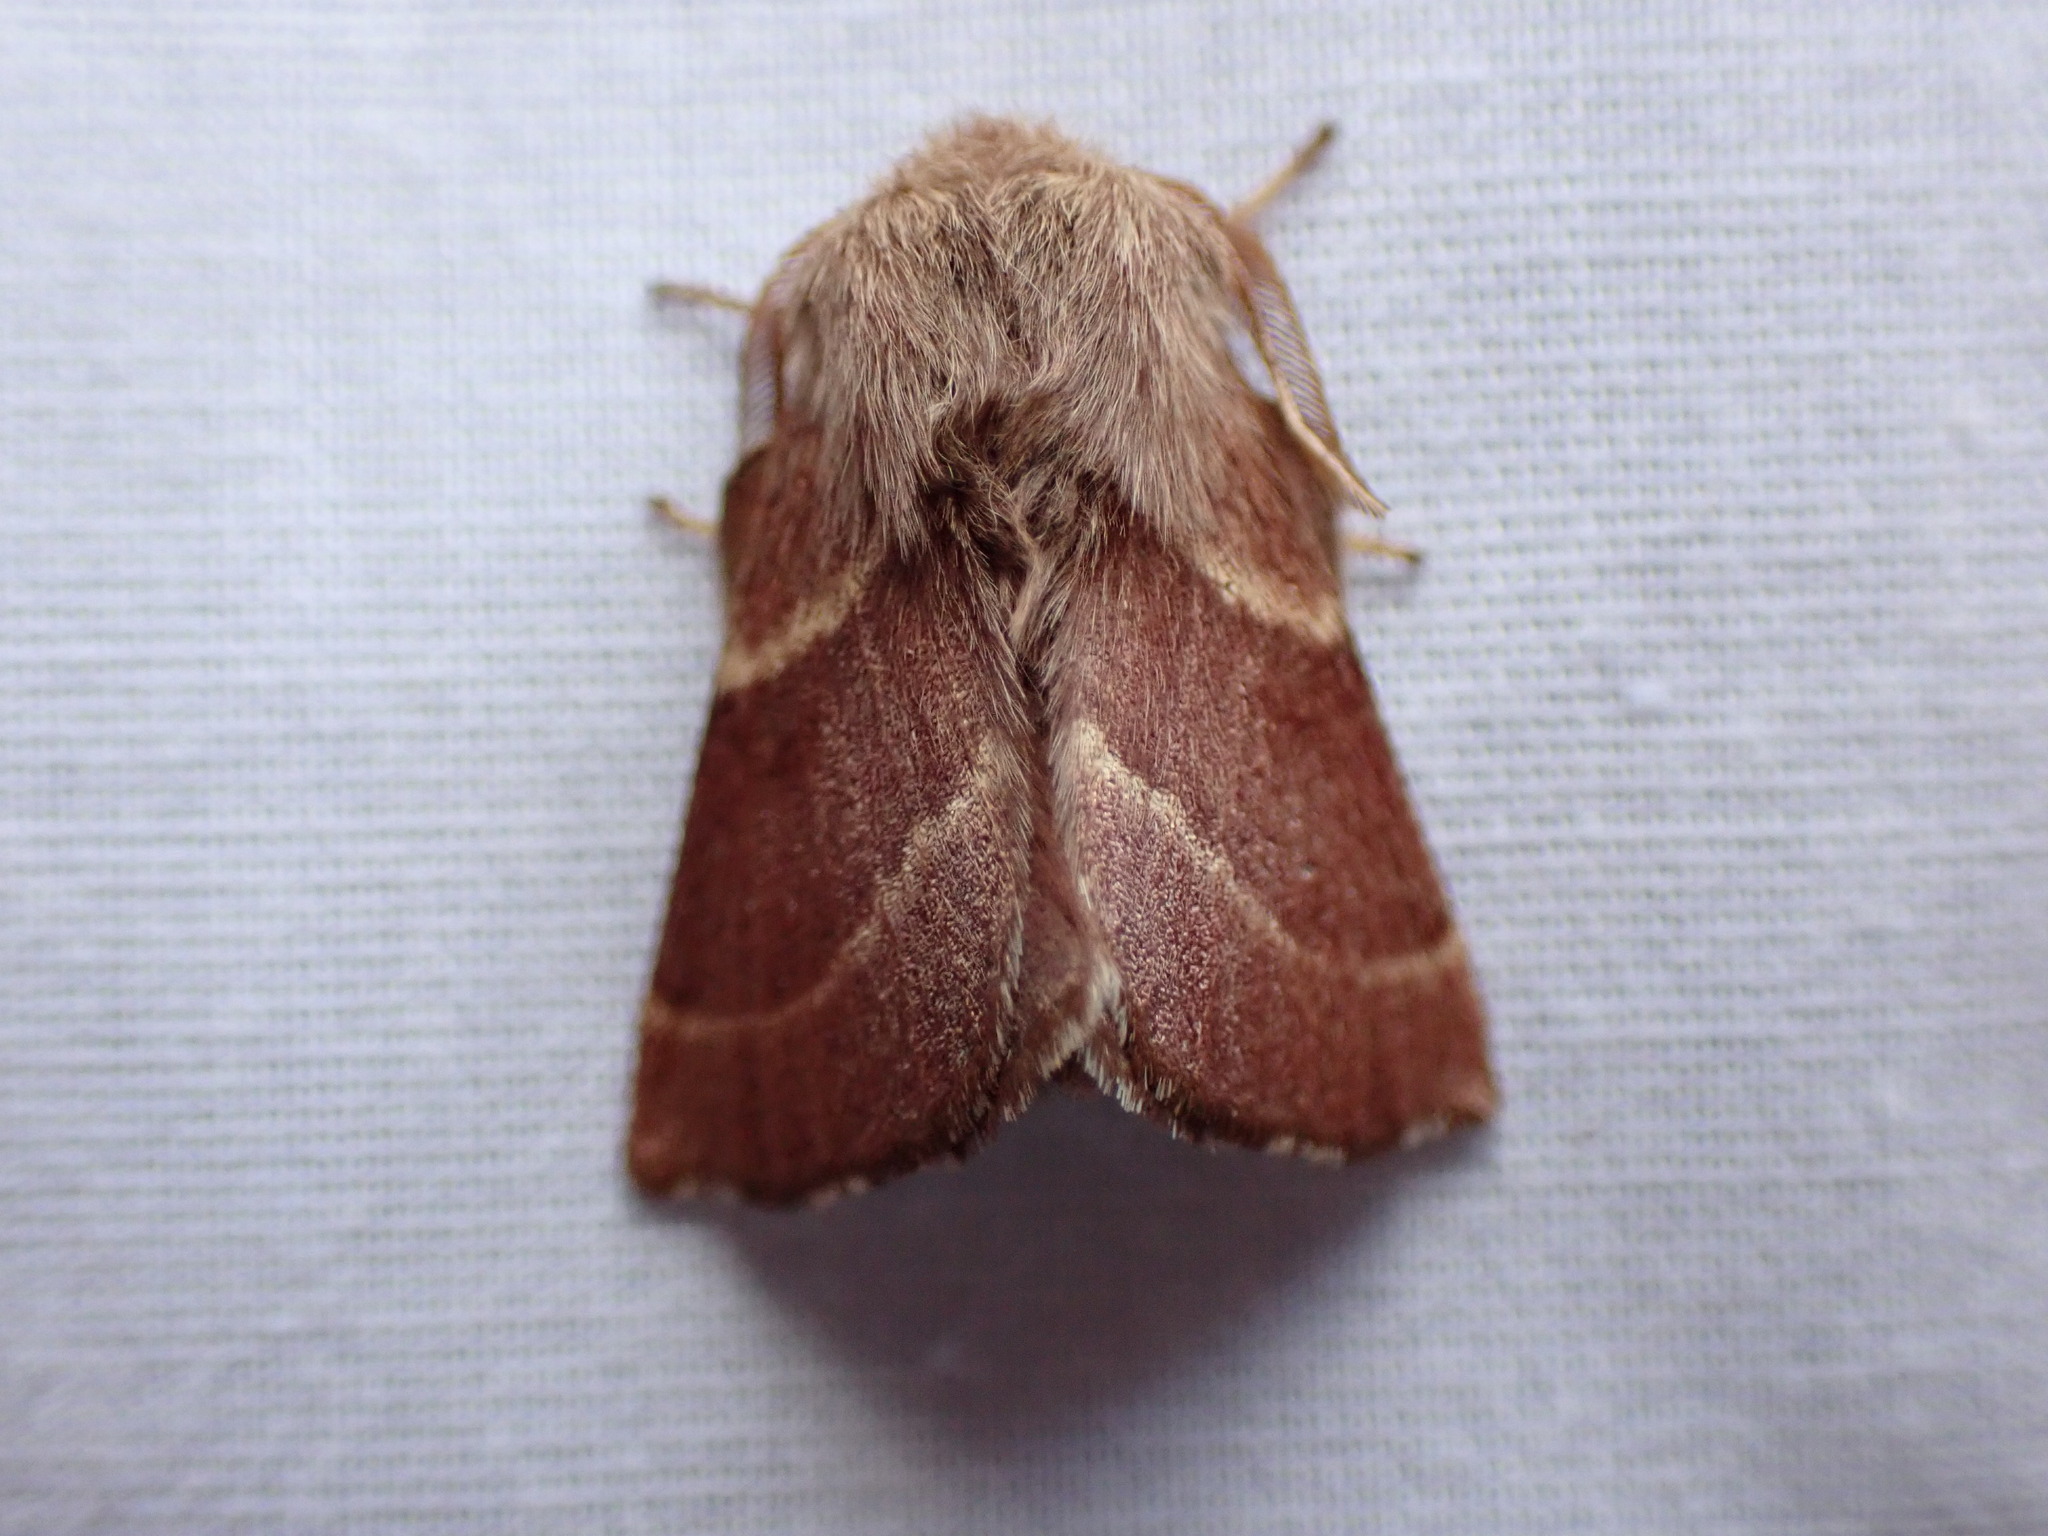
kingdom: Animalia
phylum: Arthropoda
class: Insecta
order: Lepidoptera
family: Lasiocampidae
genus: Malacosoma
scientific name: Malacosoma californica
